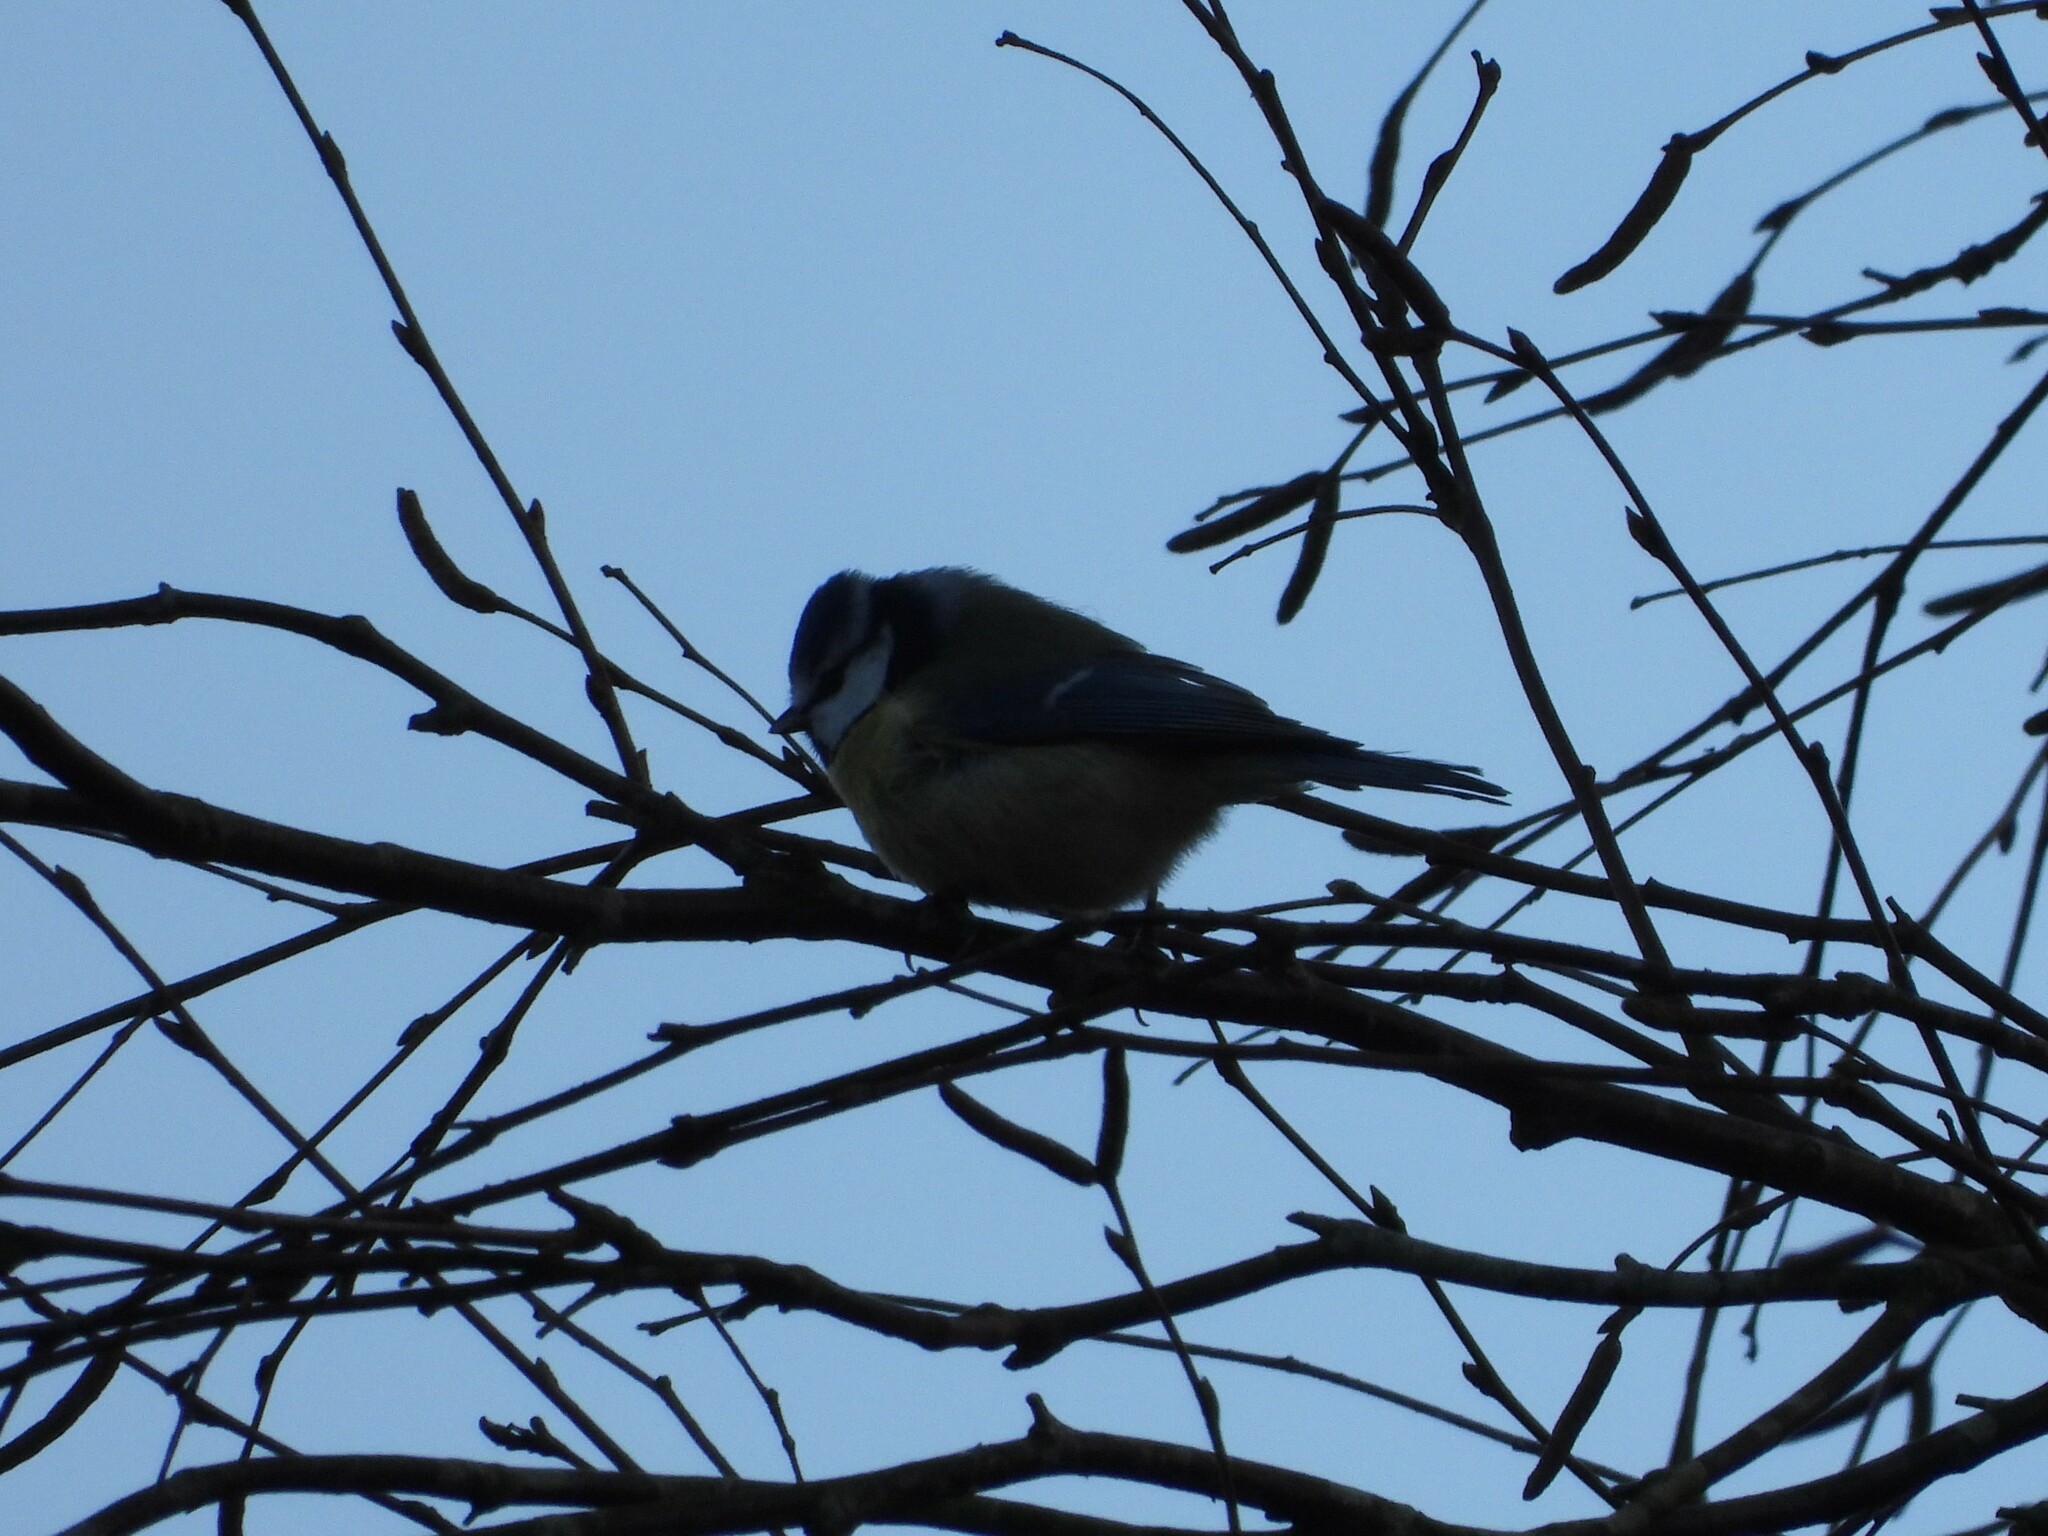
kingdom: Animalia
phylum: Chordata
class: Aves
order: Passeriformes
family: Paridae
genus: Cyanistes
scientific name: Cyanistes caeruleus
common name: Eurasian blue tit
